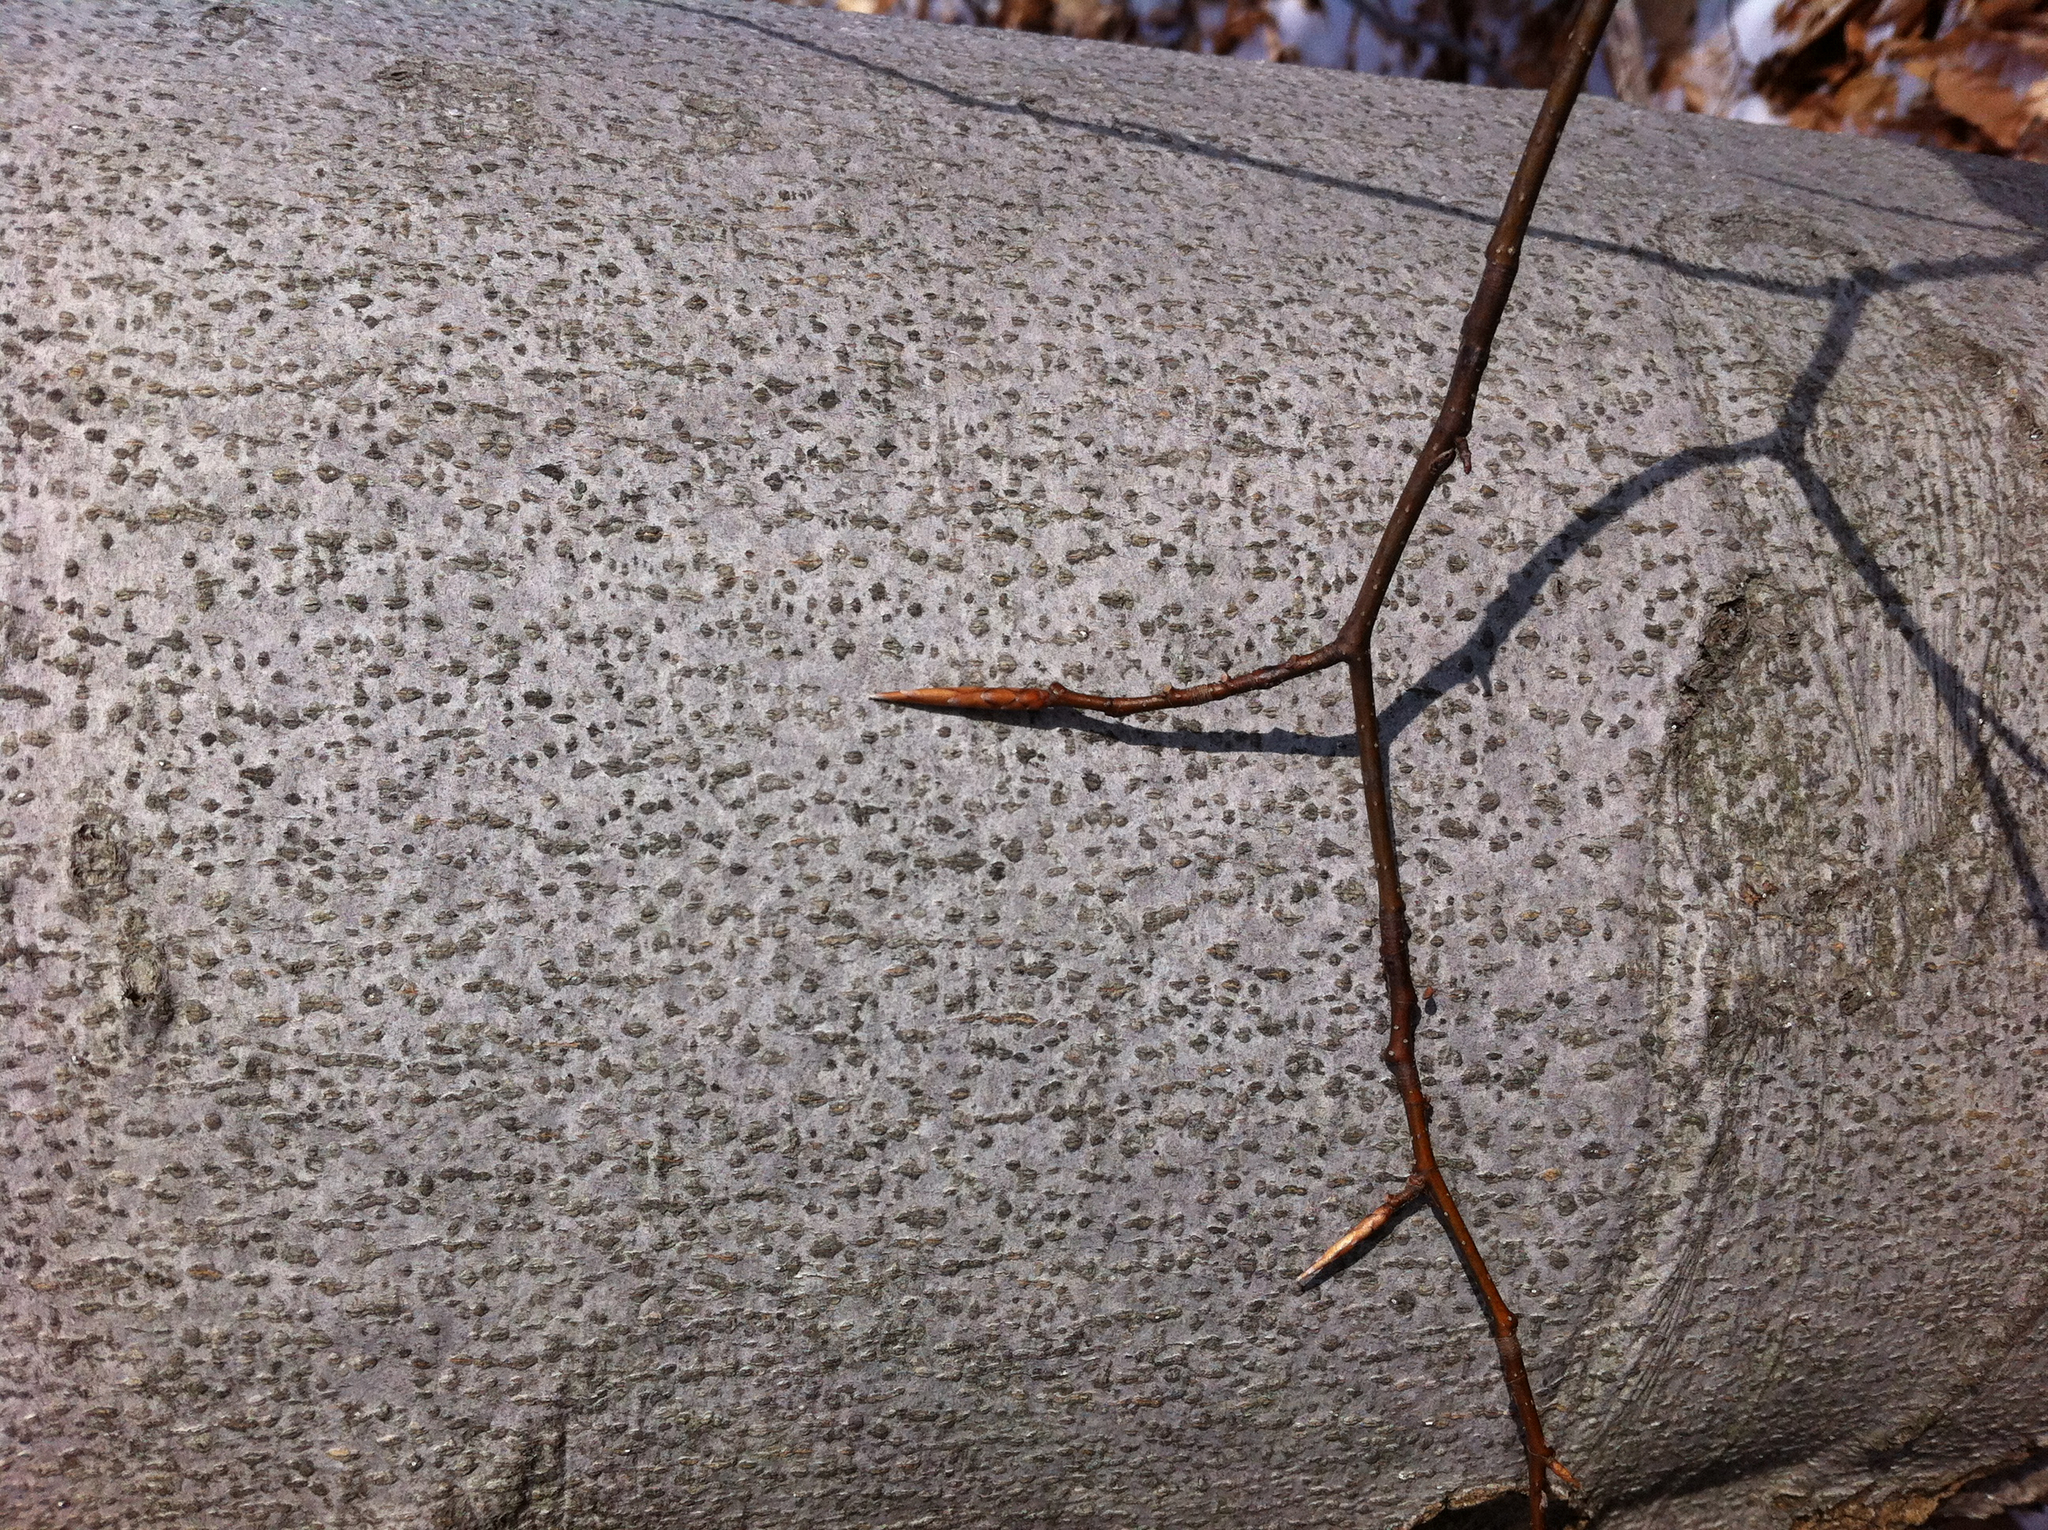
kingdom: Plantae
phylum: Tracheophyta
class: Magnoliopsida
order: Fagales
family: Fagaceae
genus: Fagus
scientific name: Fagus grandifolia
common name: American beech
